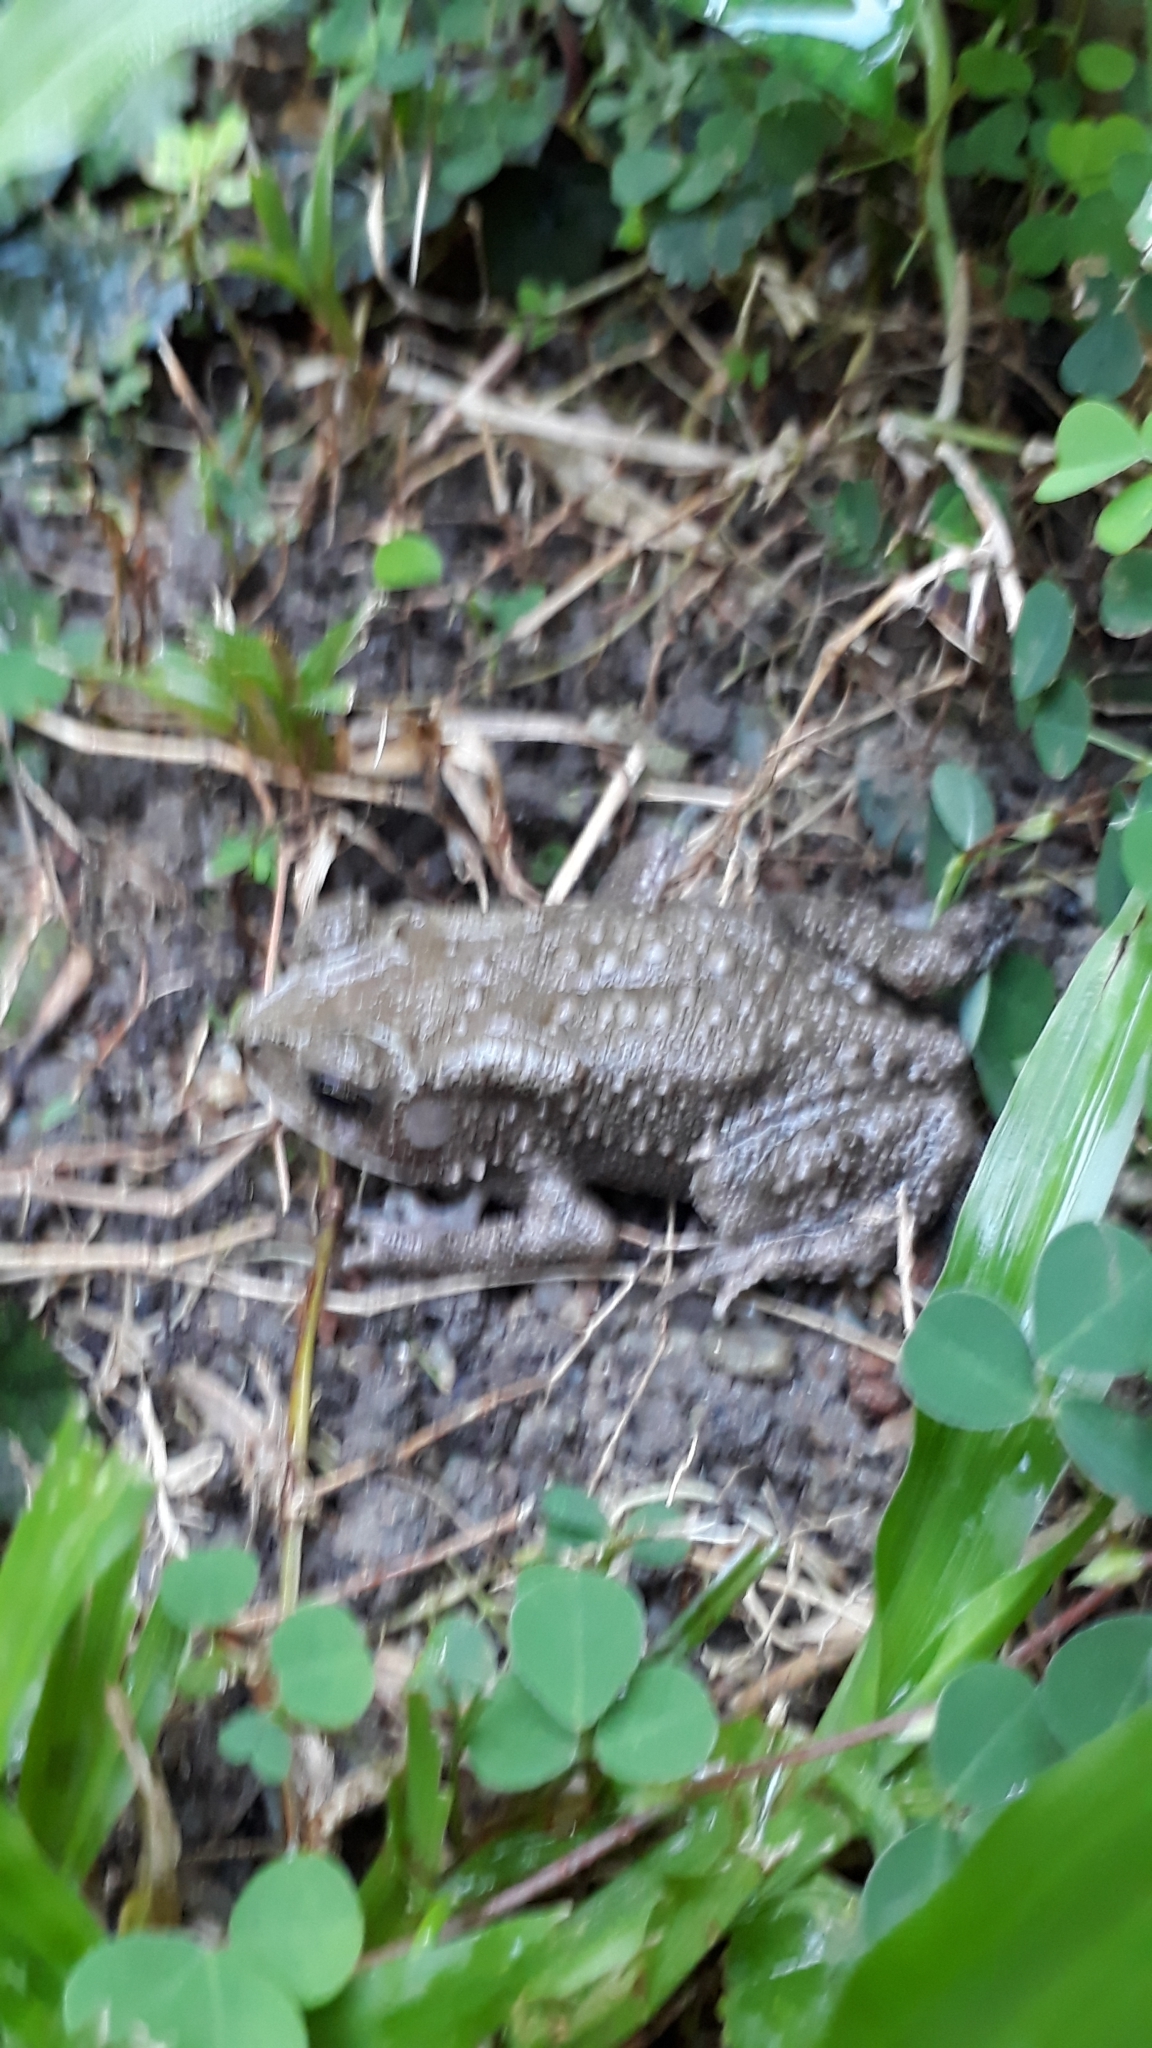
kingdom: Animalia
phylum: Chordata
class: Amphibia
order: Anura
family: Bufonidae
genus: Duttaphrynus
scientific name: Duttaphrynus melanostictus
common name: Common sunda toad
